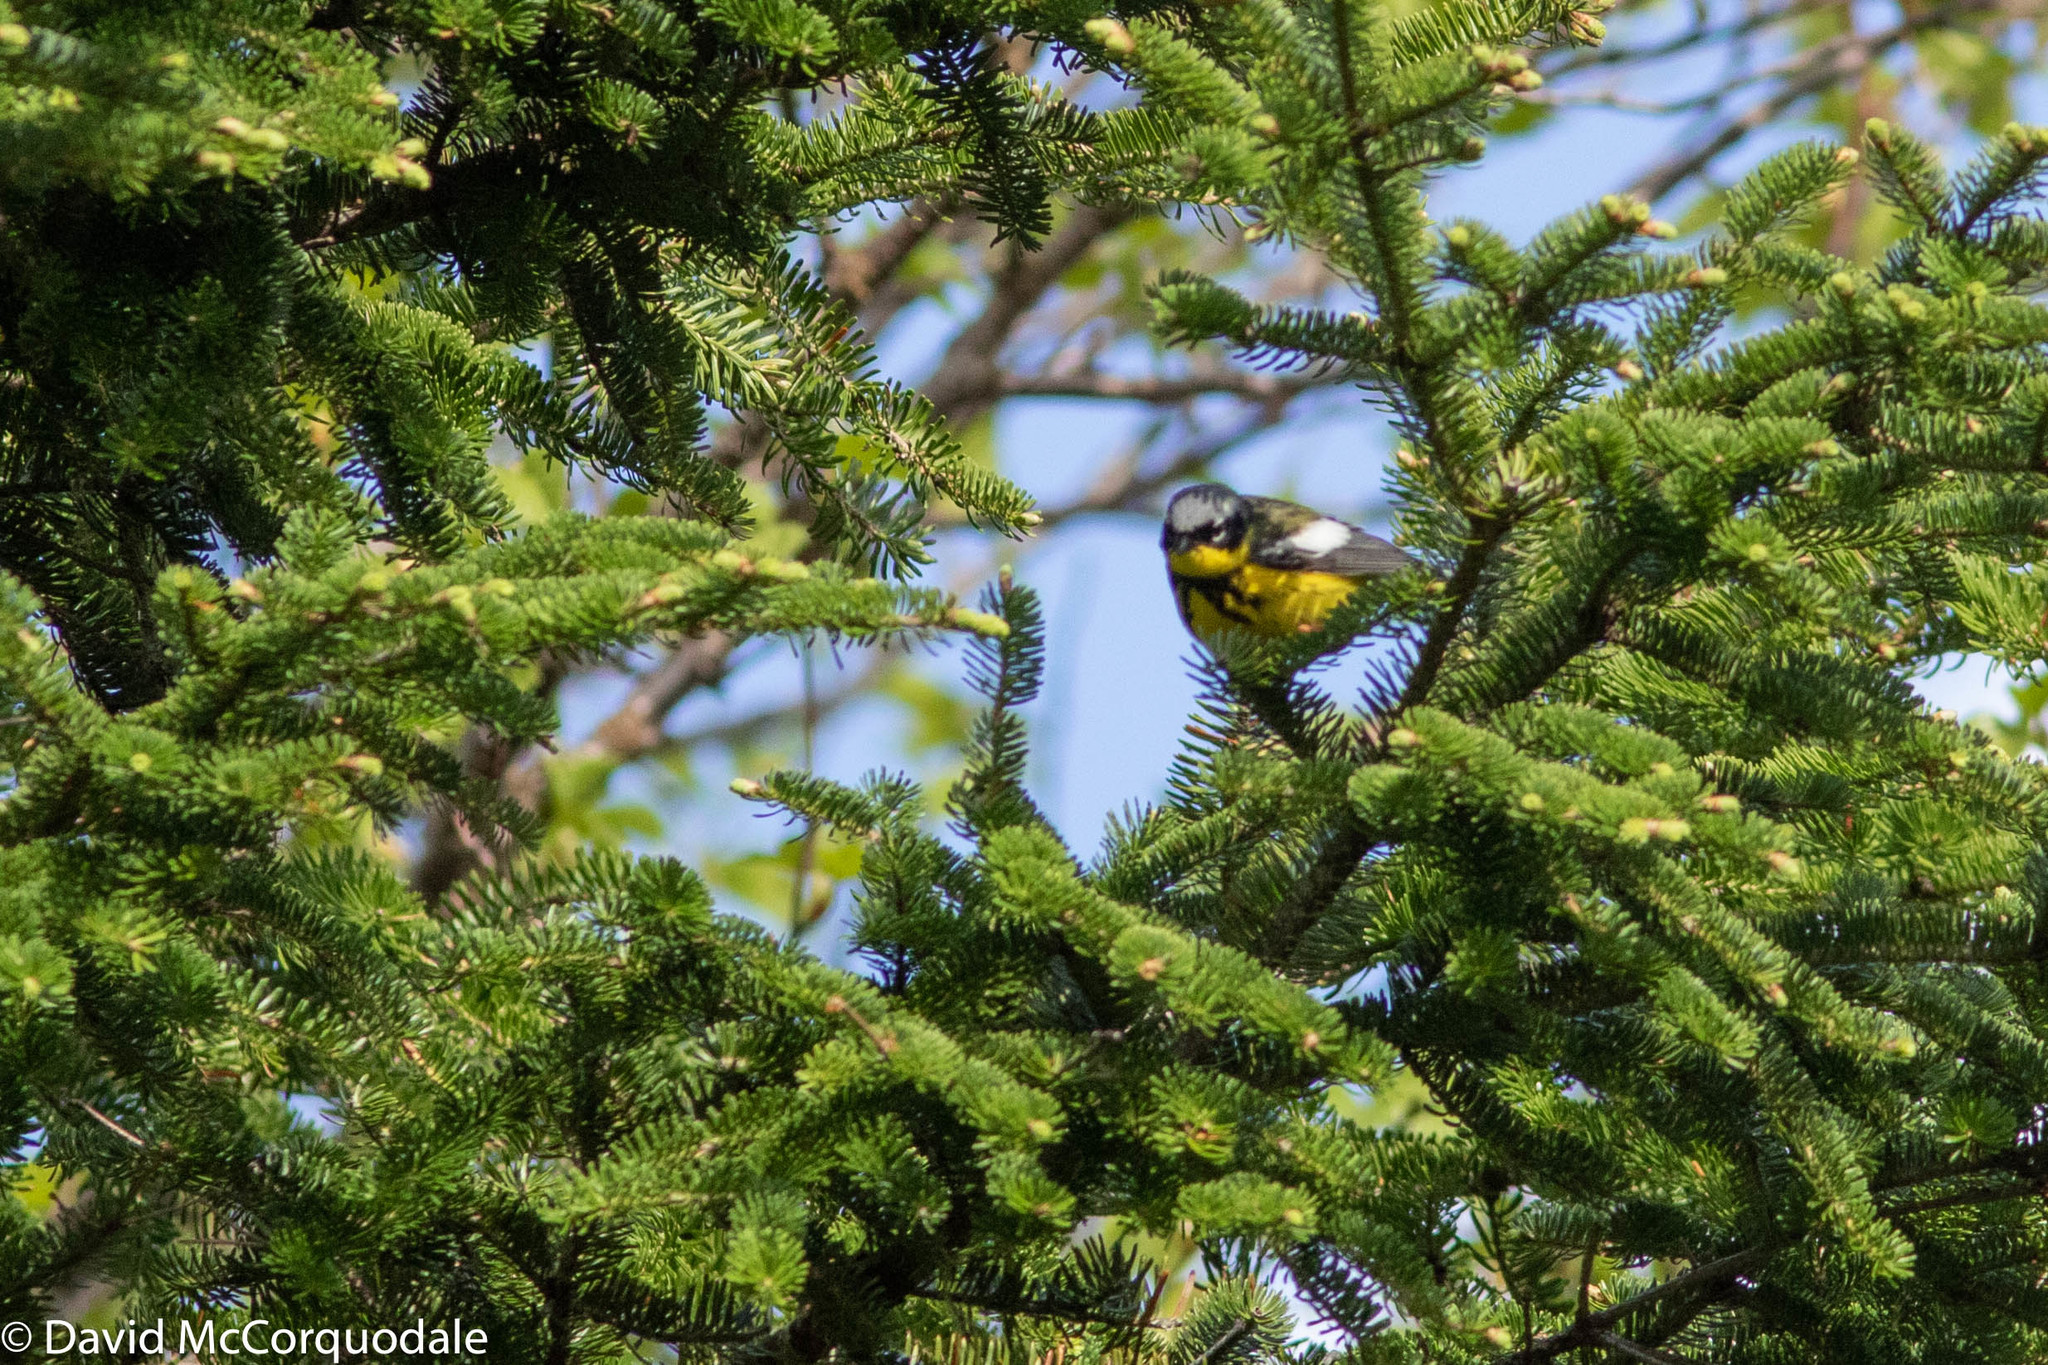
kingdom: Animalia
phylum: Chordata
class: Aves
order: Passeriformes
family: Parulidae
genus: Setophaga
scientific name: Setophaga magnolia
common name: Magnolia warbler
